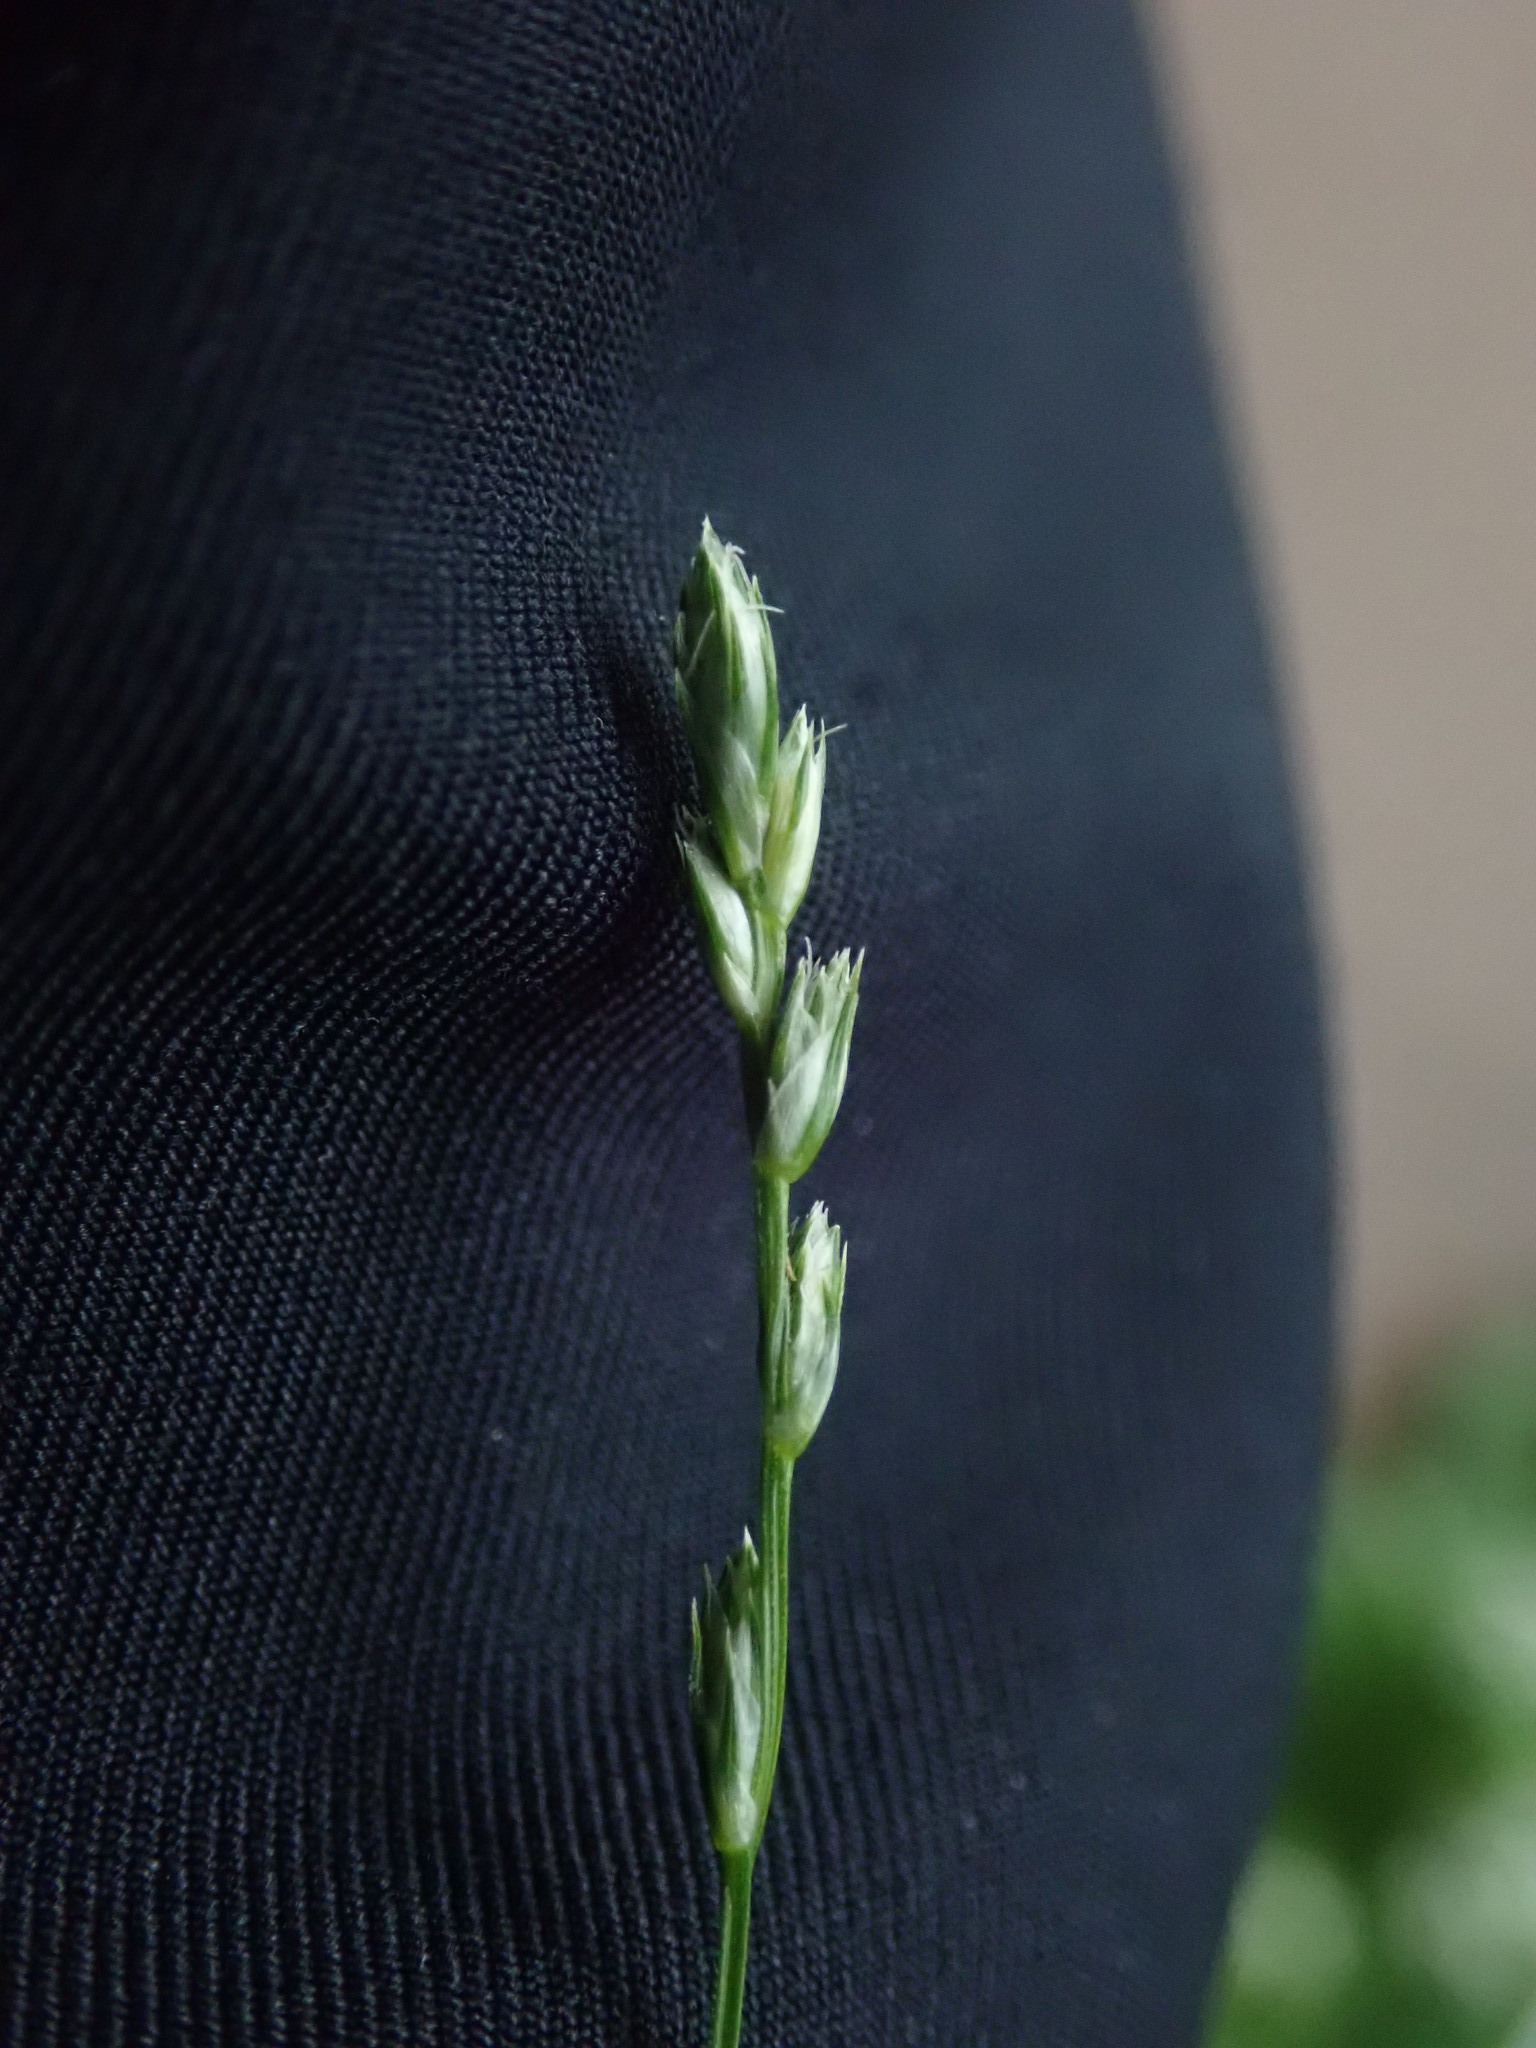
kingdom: Plantae
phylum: Tracheophyta
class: Liliopsida
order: Poales
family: Cyperaceae
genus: Carex
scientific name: Carex divulsa
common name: Grassland sedge
